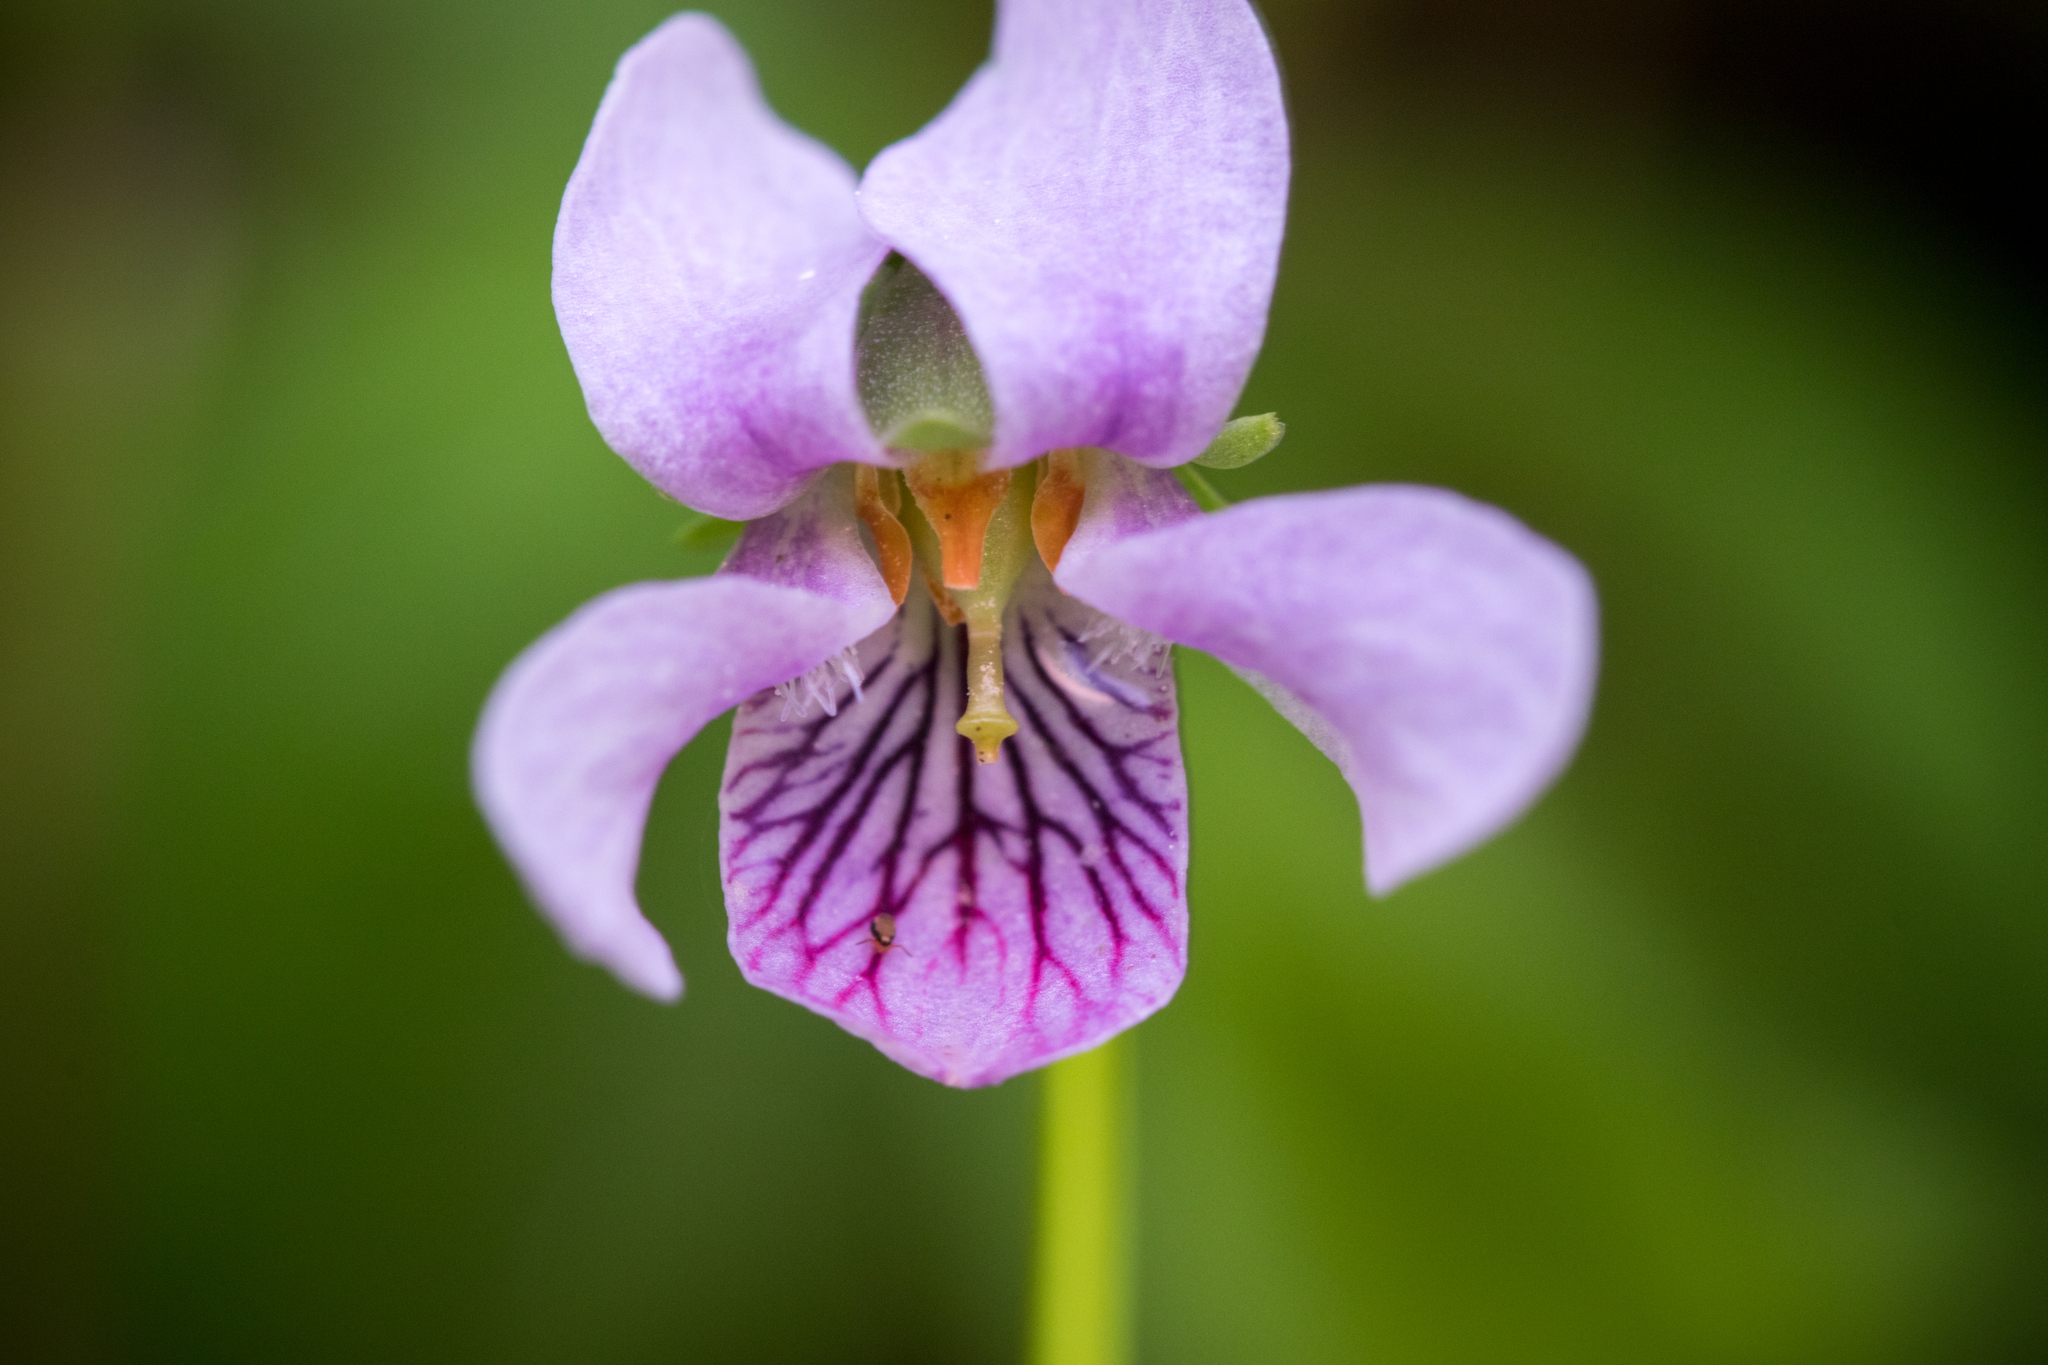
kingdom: Plantae
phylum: Tracheophyta
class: Magnoliopsida
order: Malpighiales
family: Violaceae
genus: Viola
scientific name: Viola palustris
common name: Marsh violet
